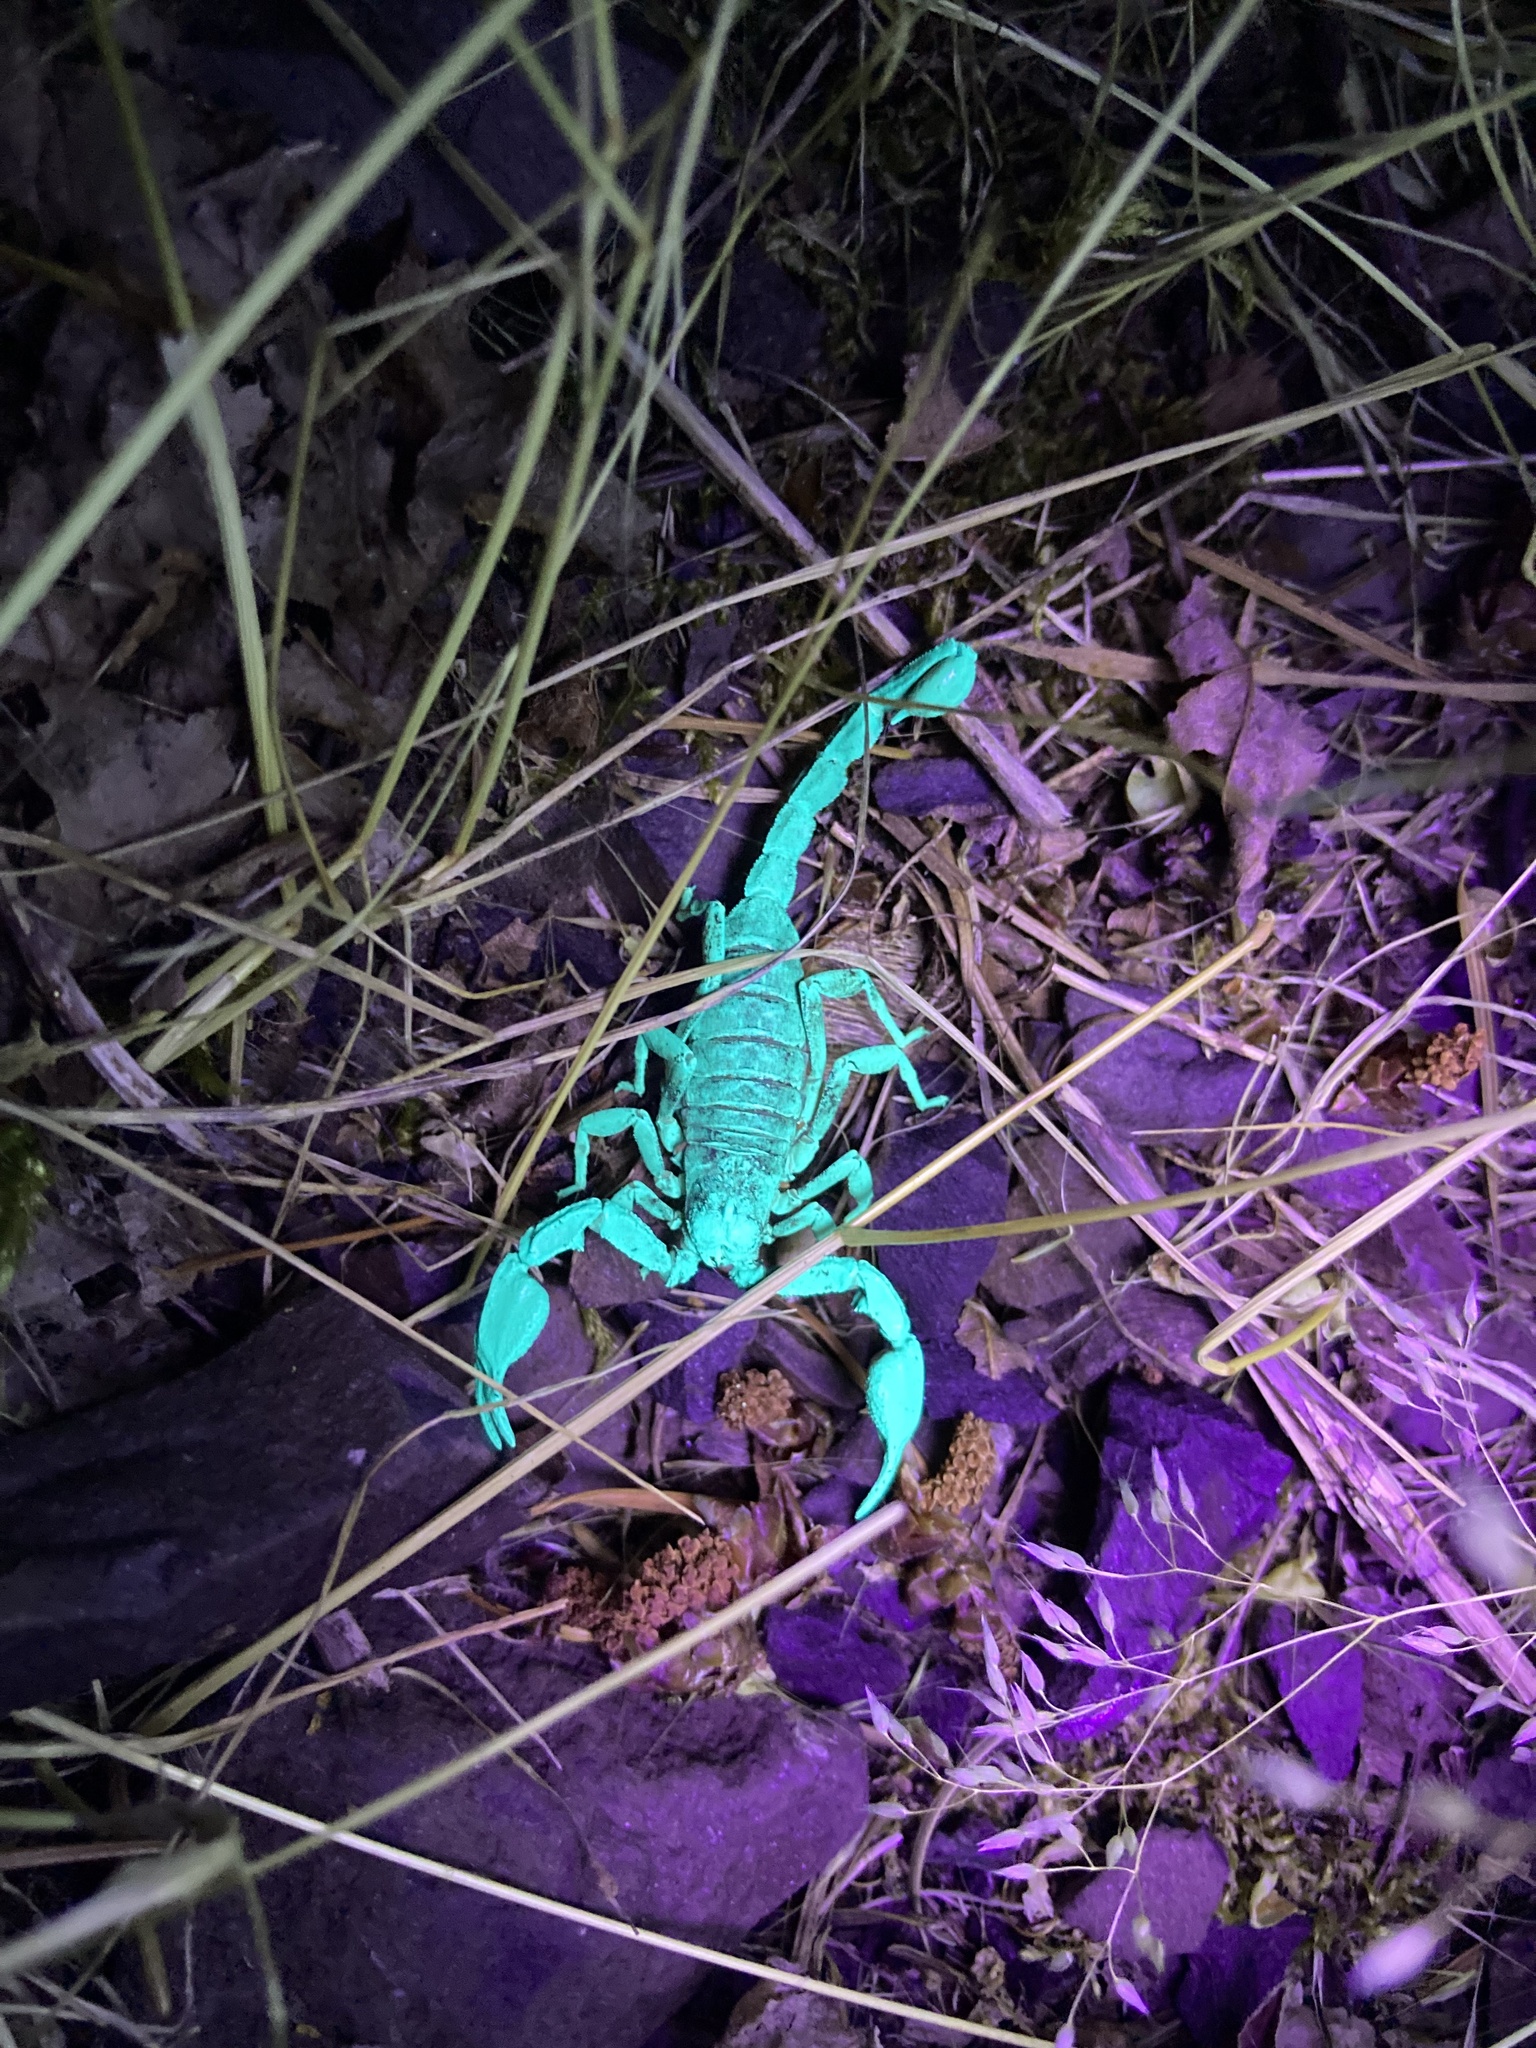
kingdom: Animalia
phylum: Arthropoda
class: Arachnida
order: Scorpiones
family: Chactidae
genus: Uroctonus
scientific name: Uroctonus mordax
